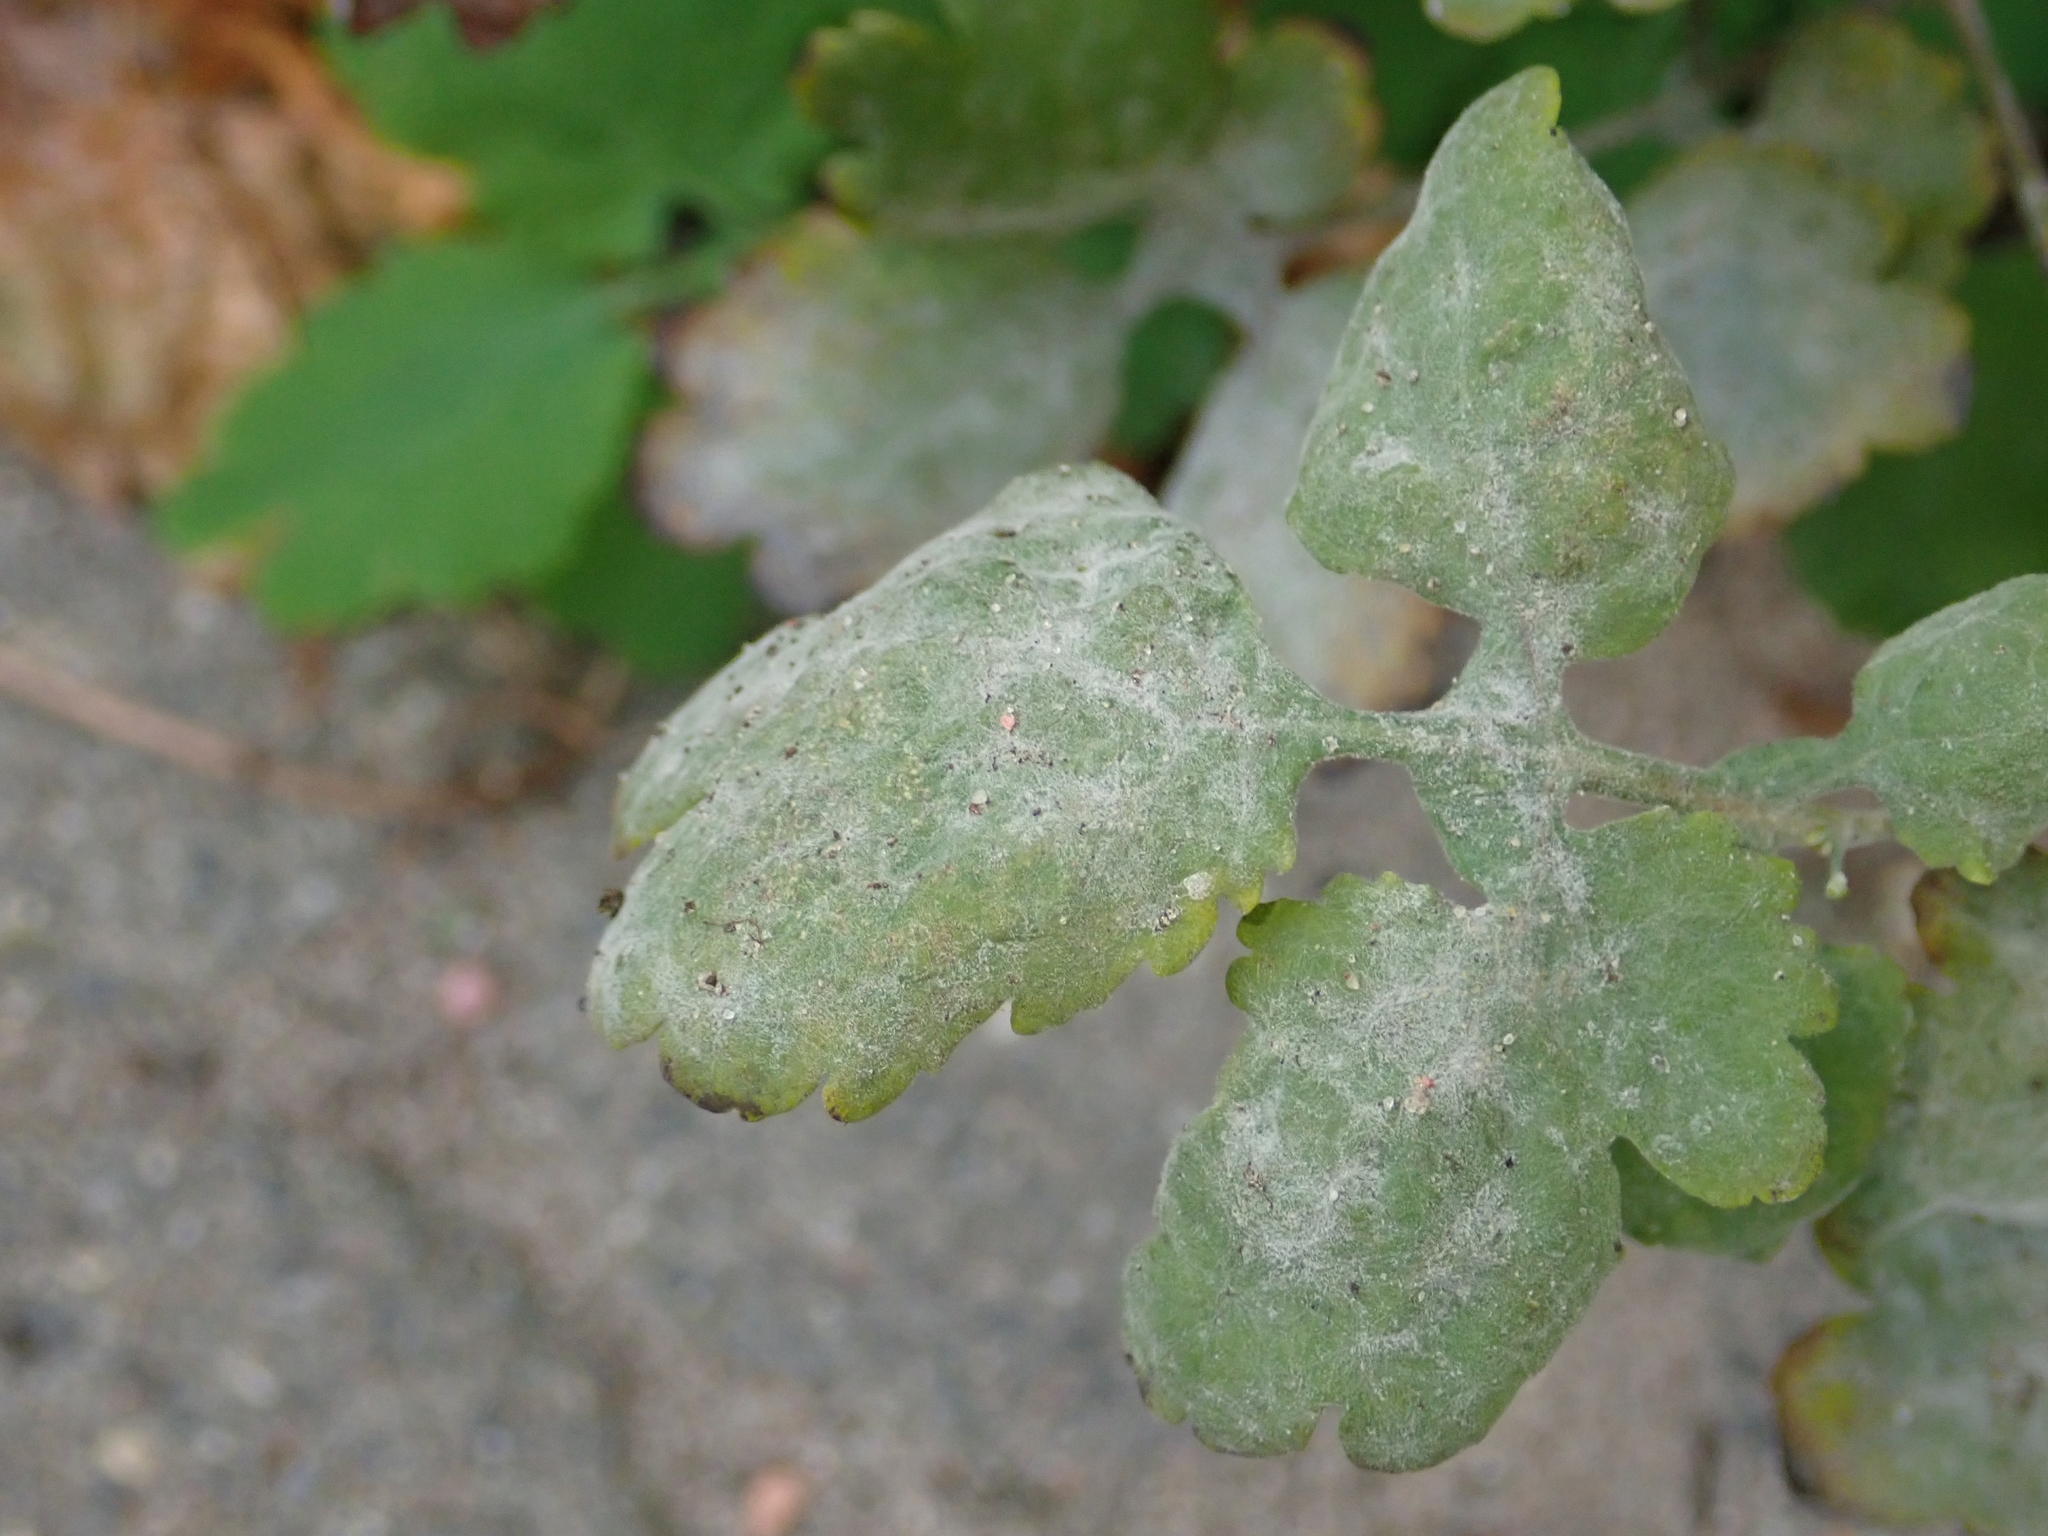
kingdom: Fungi
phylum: Ascomycota
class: Leotiomycetes
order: Helotiales
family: Erysiphaceae
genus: Erysiphe
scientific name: Erysiphe macleayae
